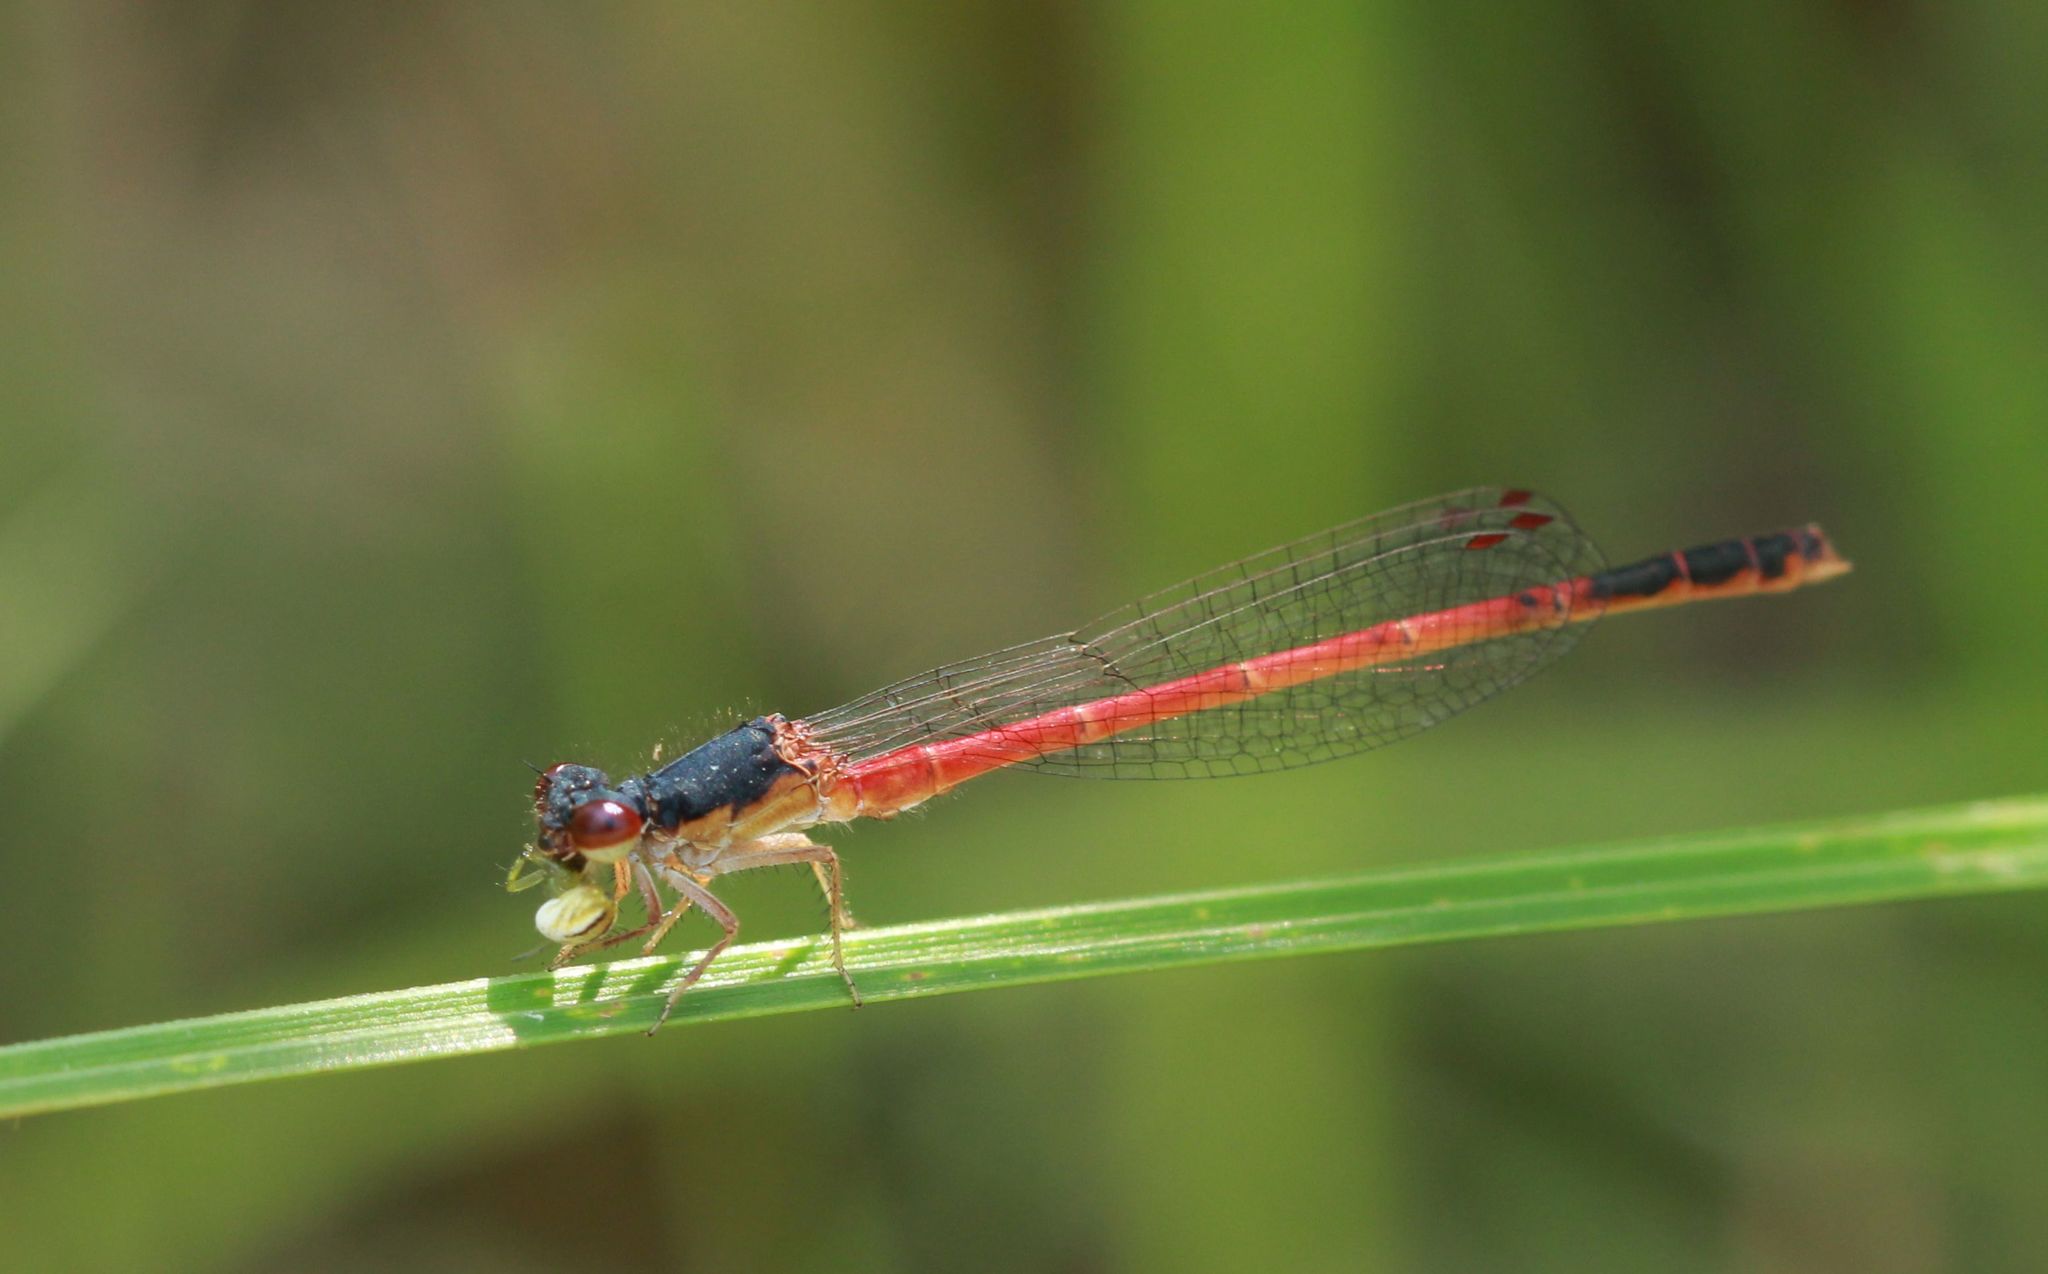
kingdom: Animalia
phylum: Arthropoda
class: Insecta
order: Odonata
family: Coenagrionidae
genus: Amphiagrion
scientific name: Amphiagrion saucium
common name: Eastern red damsel
